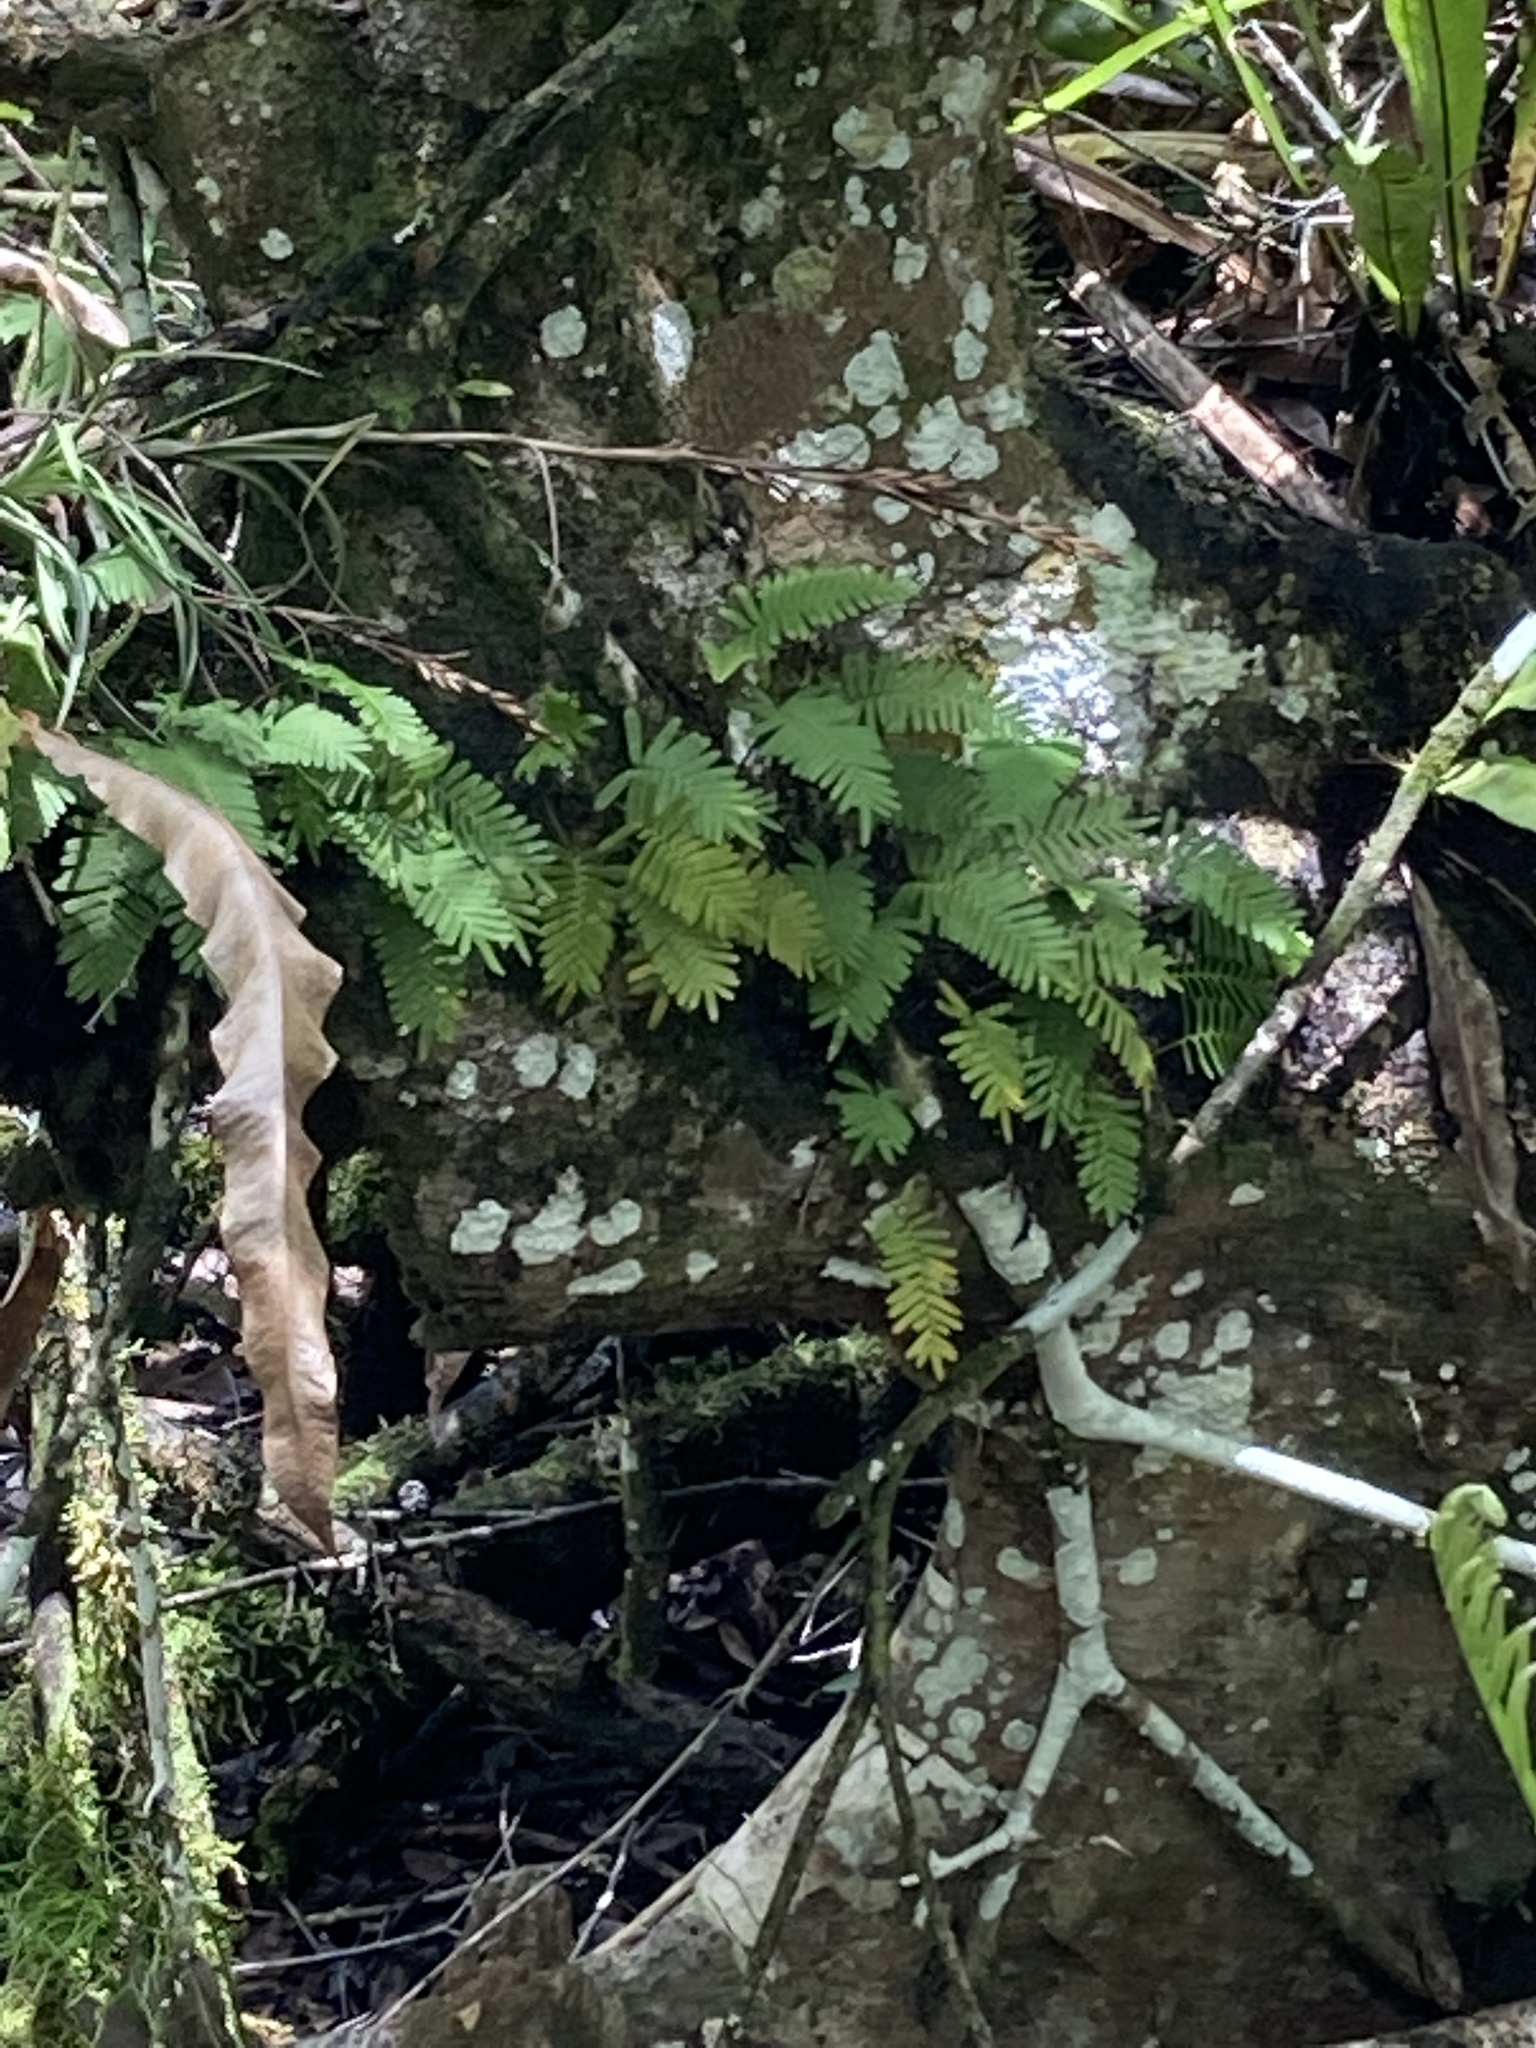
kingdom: Plantae
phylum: Tracheophyta
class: Polypodiopsida
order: Polypodiales
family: Polypodiaceae
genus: Pleopeltis
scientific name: Pleopeltis michauxiana
